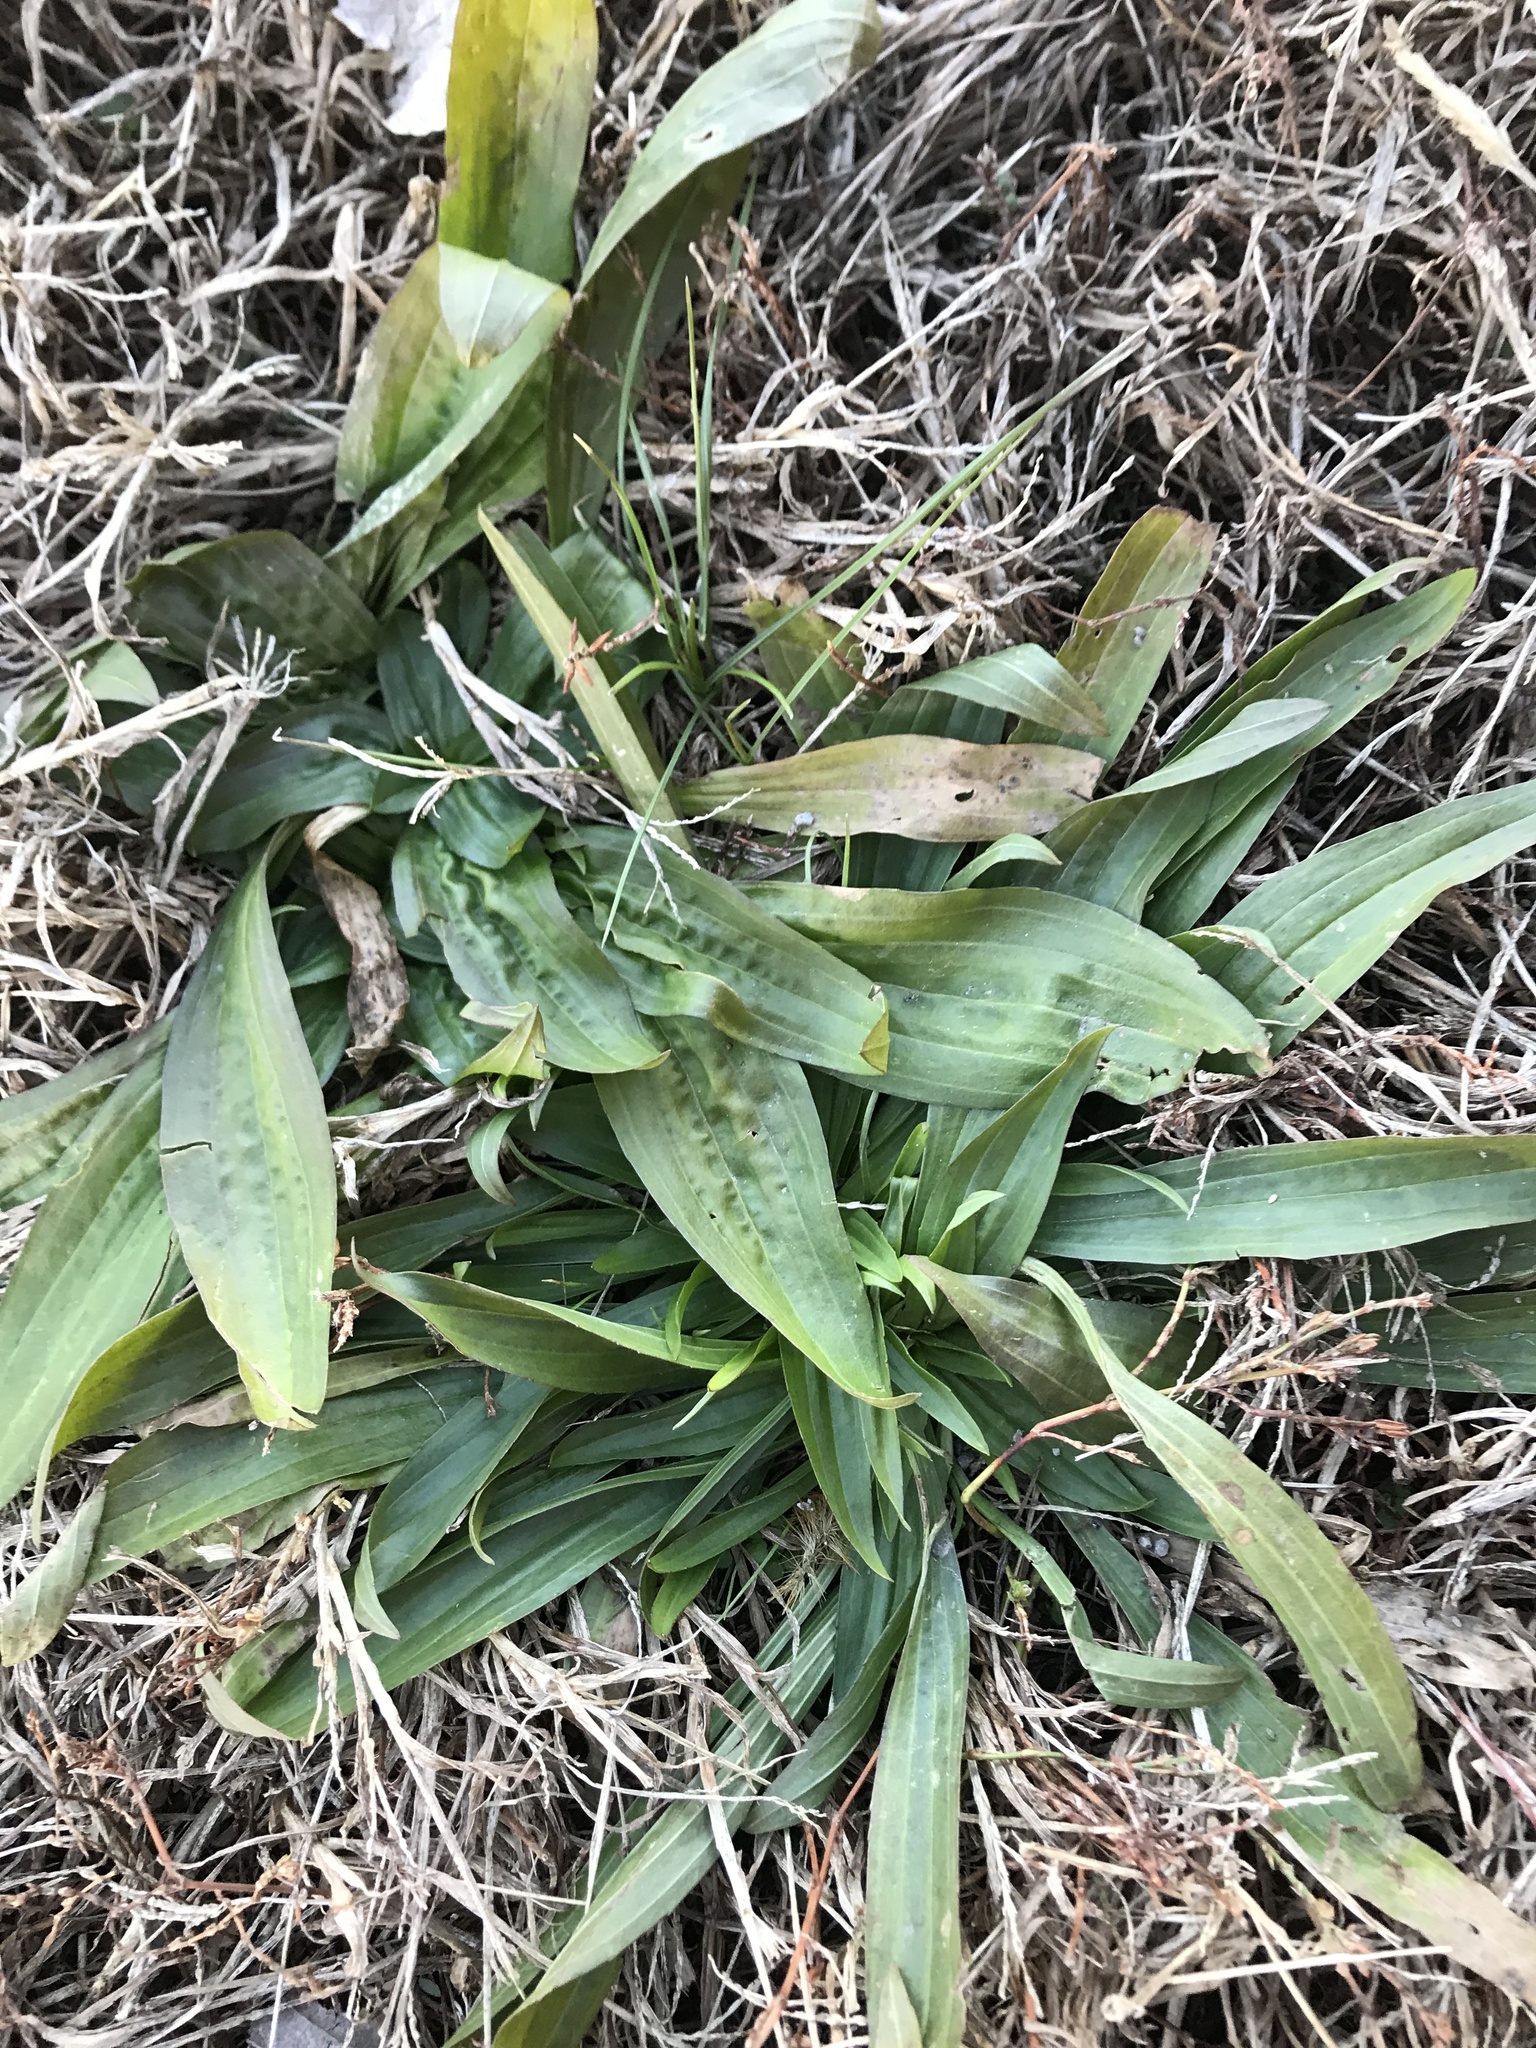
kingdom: Plantae
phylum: Tracheophyta
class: Magnoliopsida
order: Lamiales
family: Plantaginaceae
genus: Plantago
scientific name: Plantago lanceolata
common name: Ribwort plantain
